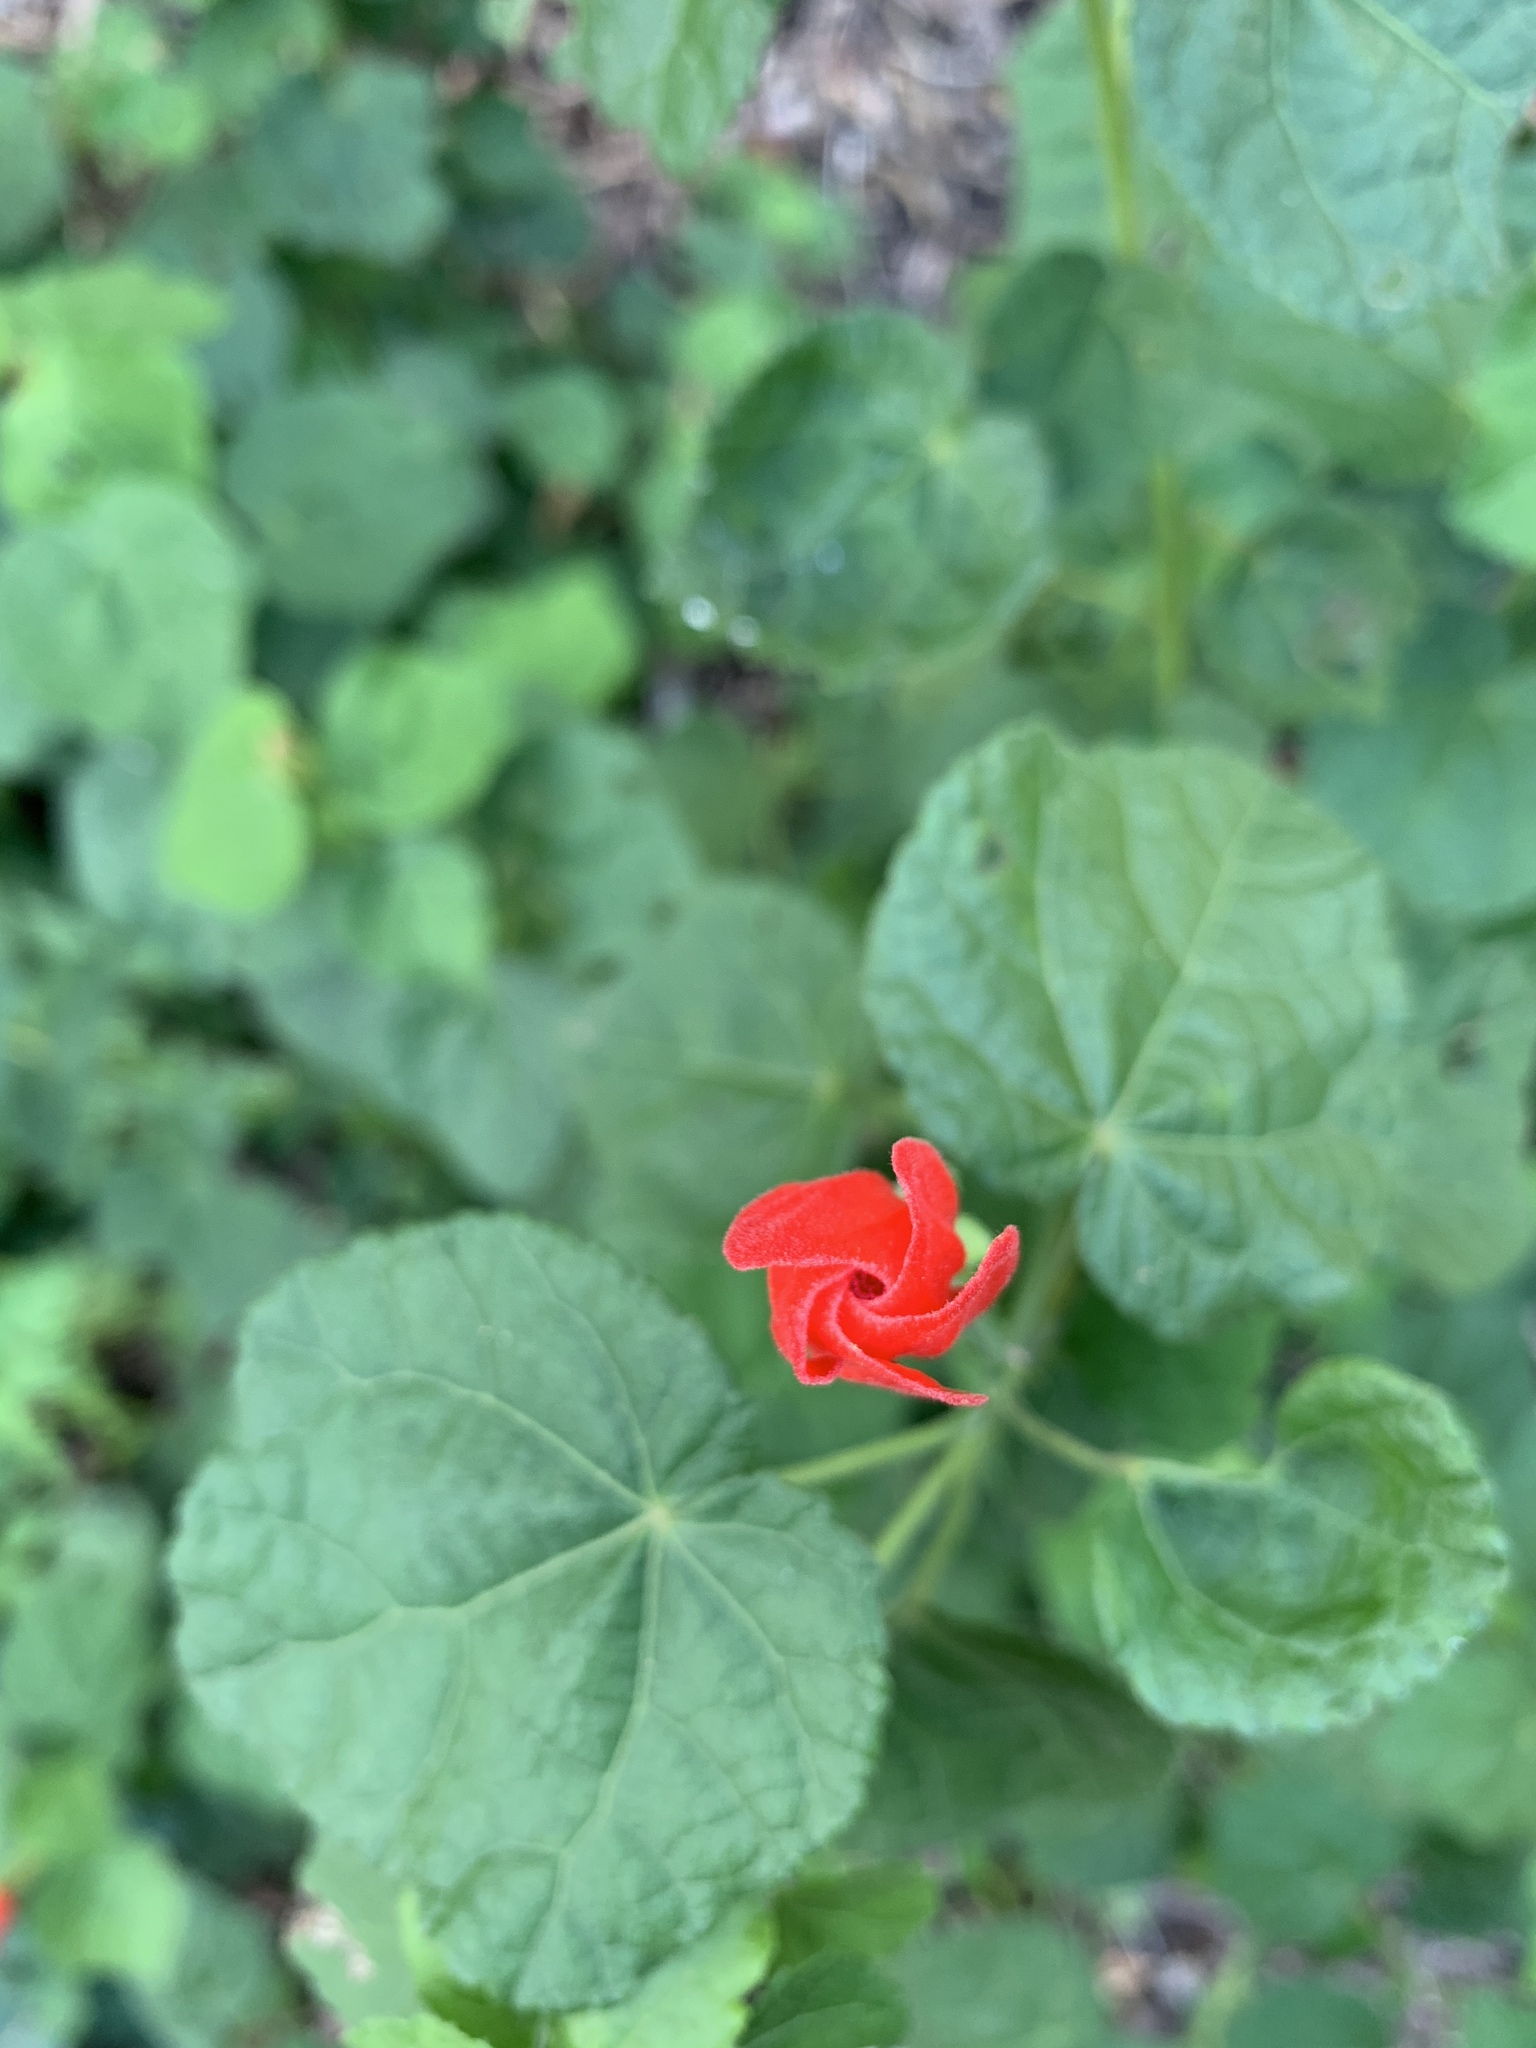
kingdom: Plantae
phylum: Tracheophyta
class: Magnoliopsida
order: Malvales
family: Malvaceae
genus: Malvaviscus
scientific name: Malvaviscus arboreus
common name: Wax mallow
